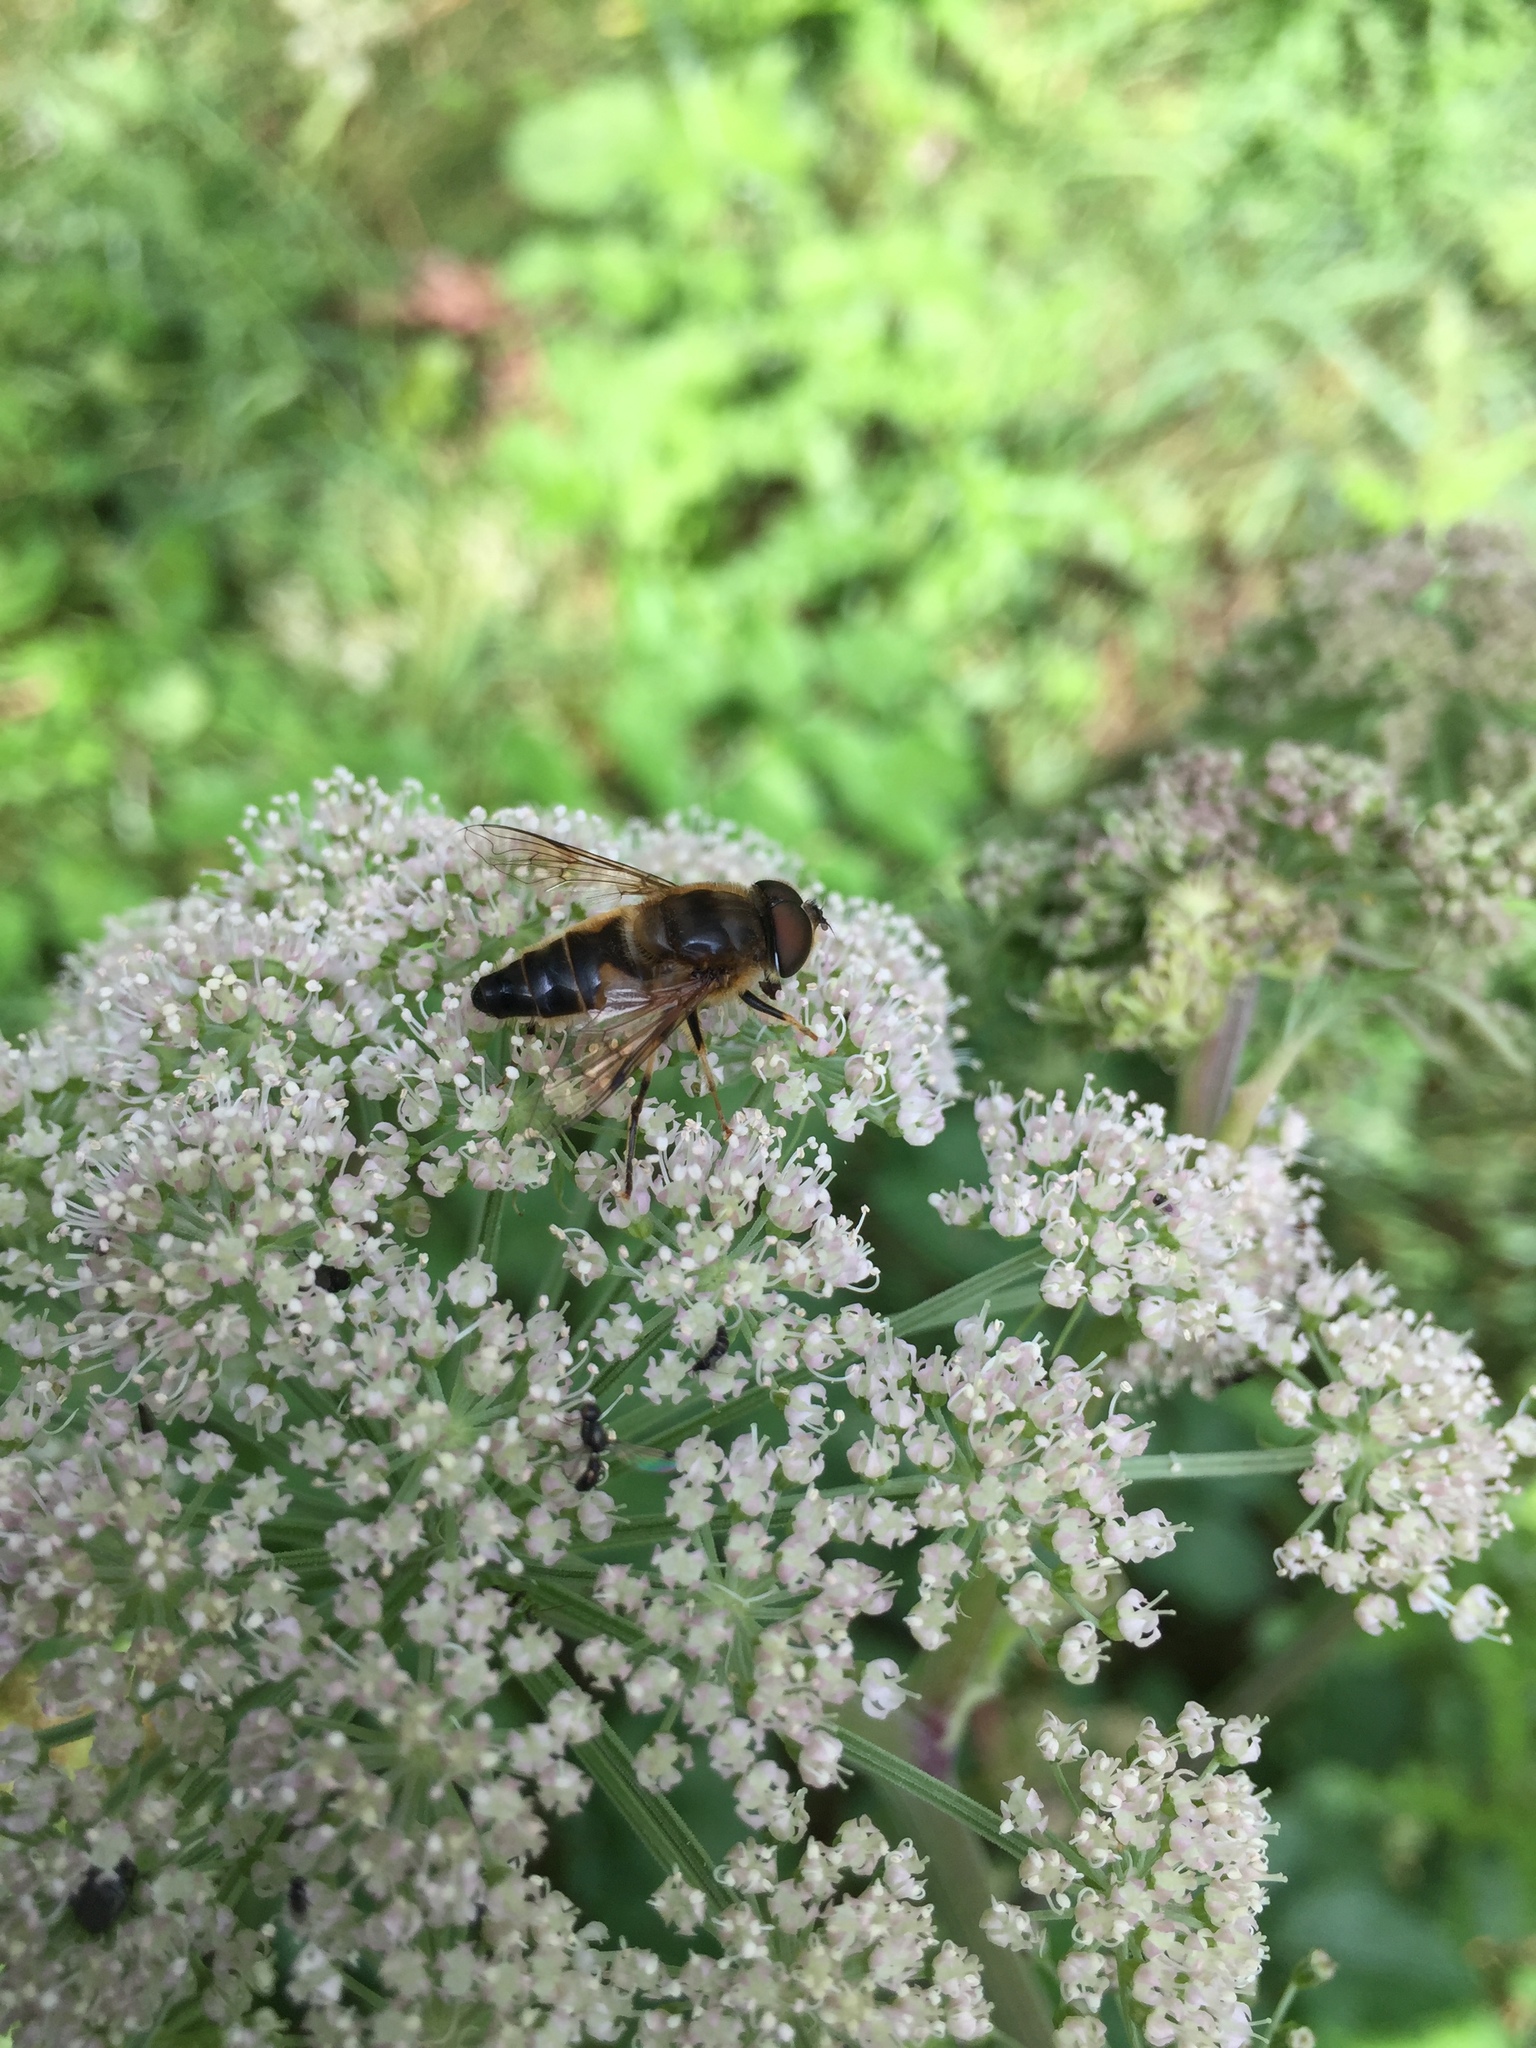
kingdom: Animalia
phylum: Arthropoda
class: Insecta
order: Diptera
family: Syrphidae
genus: Eristalis
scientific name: Eristalis pertinax
